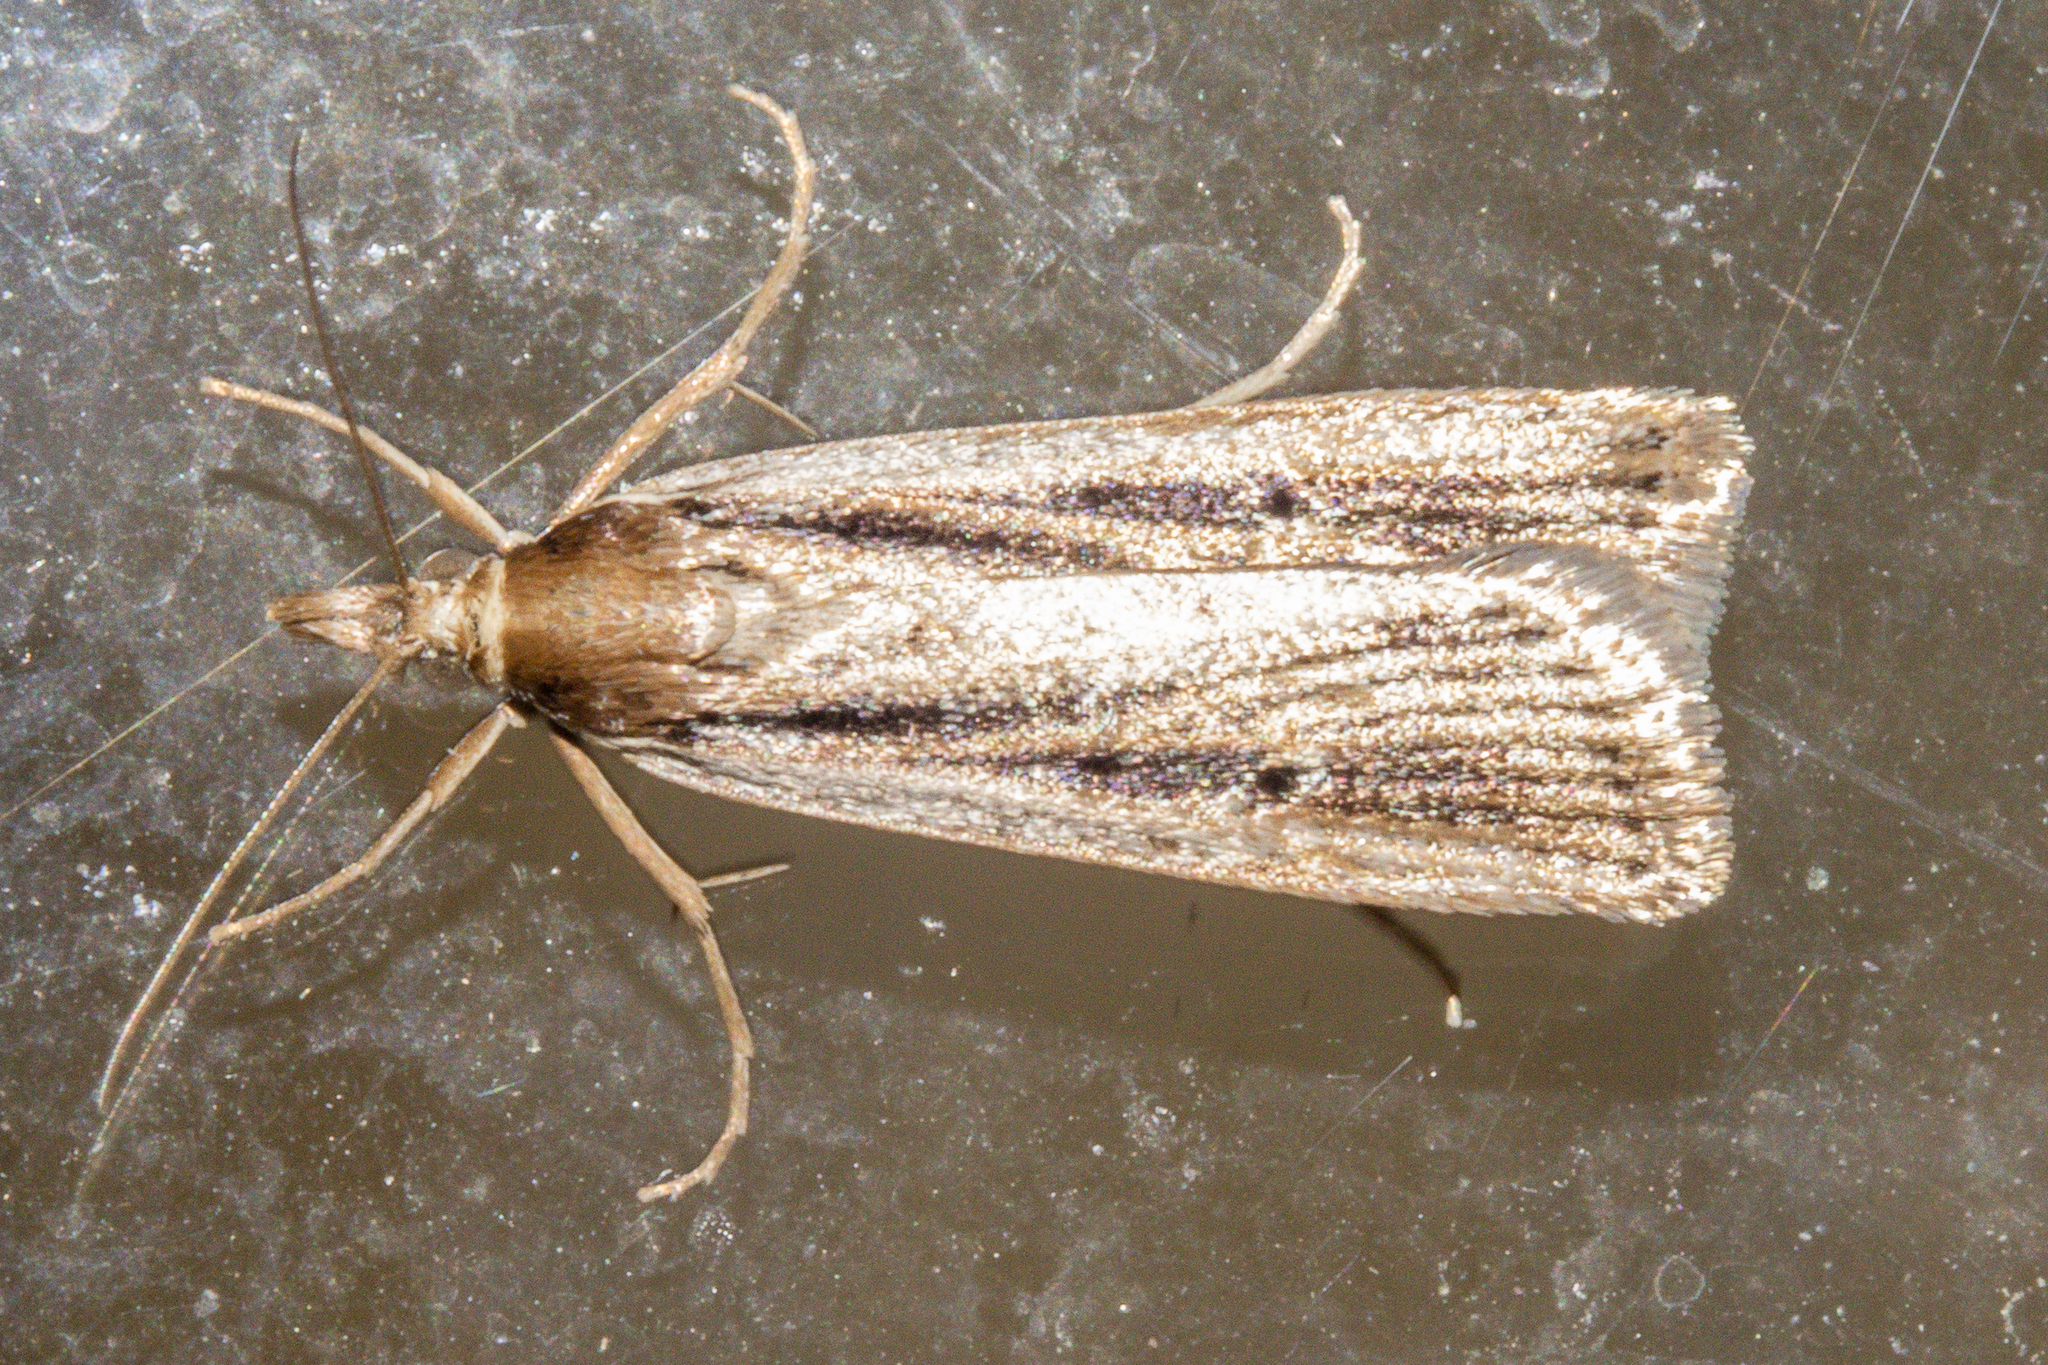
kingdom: Animalia
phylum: Arthropoda
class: Insecta
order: Lepidoptera
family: Crambidae
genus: Eudonia
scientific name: Eudonia sabulosella
